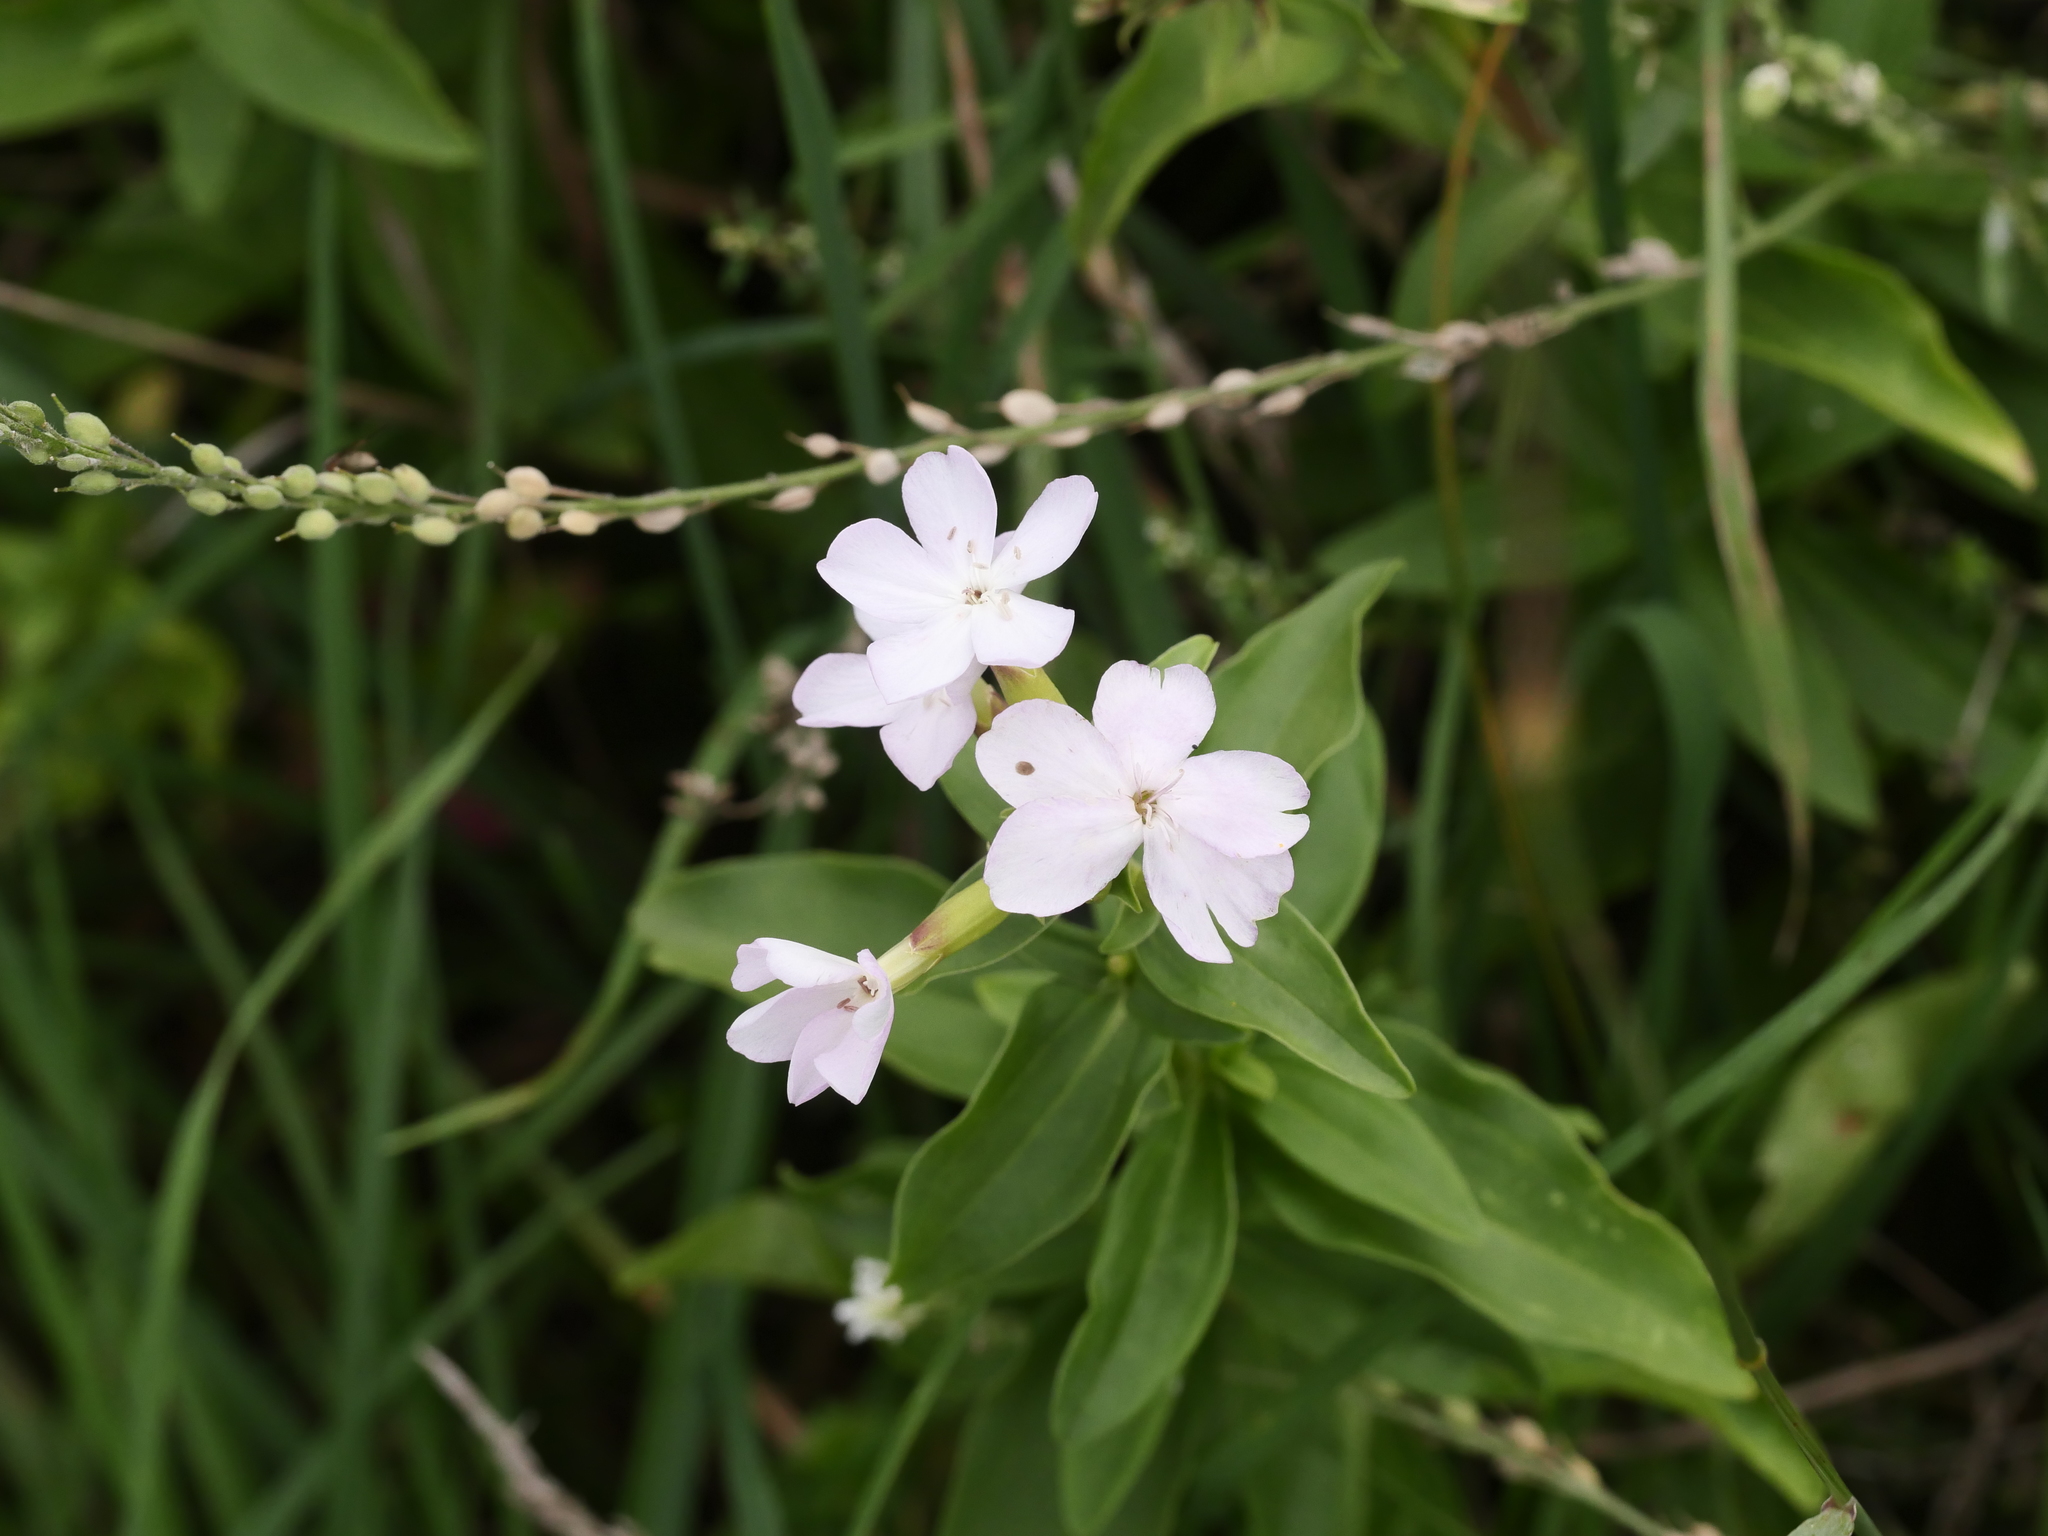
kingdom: Plantae
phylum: Tracheophyta
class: Magnoliopsida
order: Caryophyllales
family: Caryophyllaceae
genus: Saponaria
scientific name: Saponaria officinalis
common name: Soapwort
